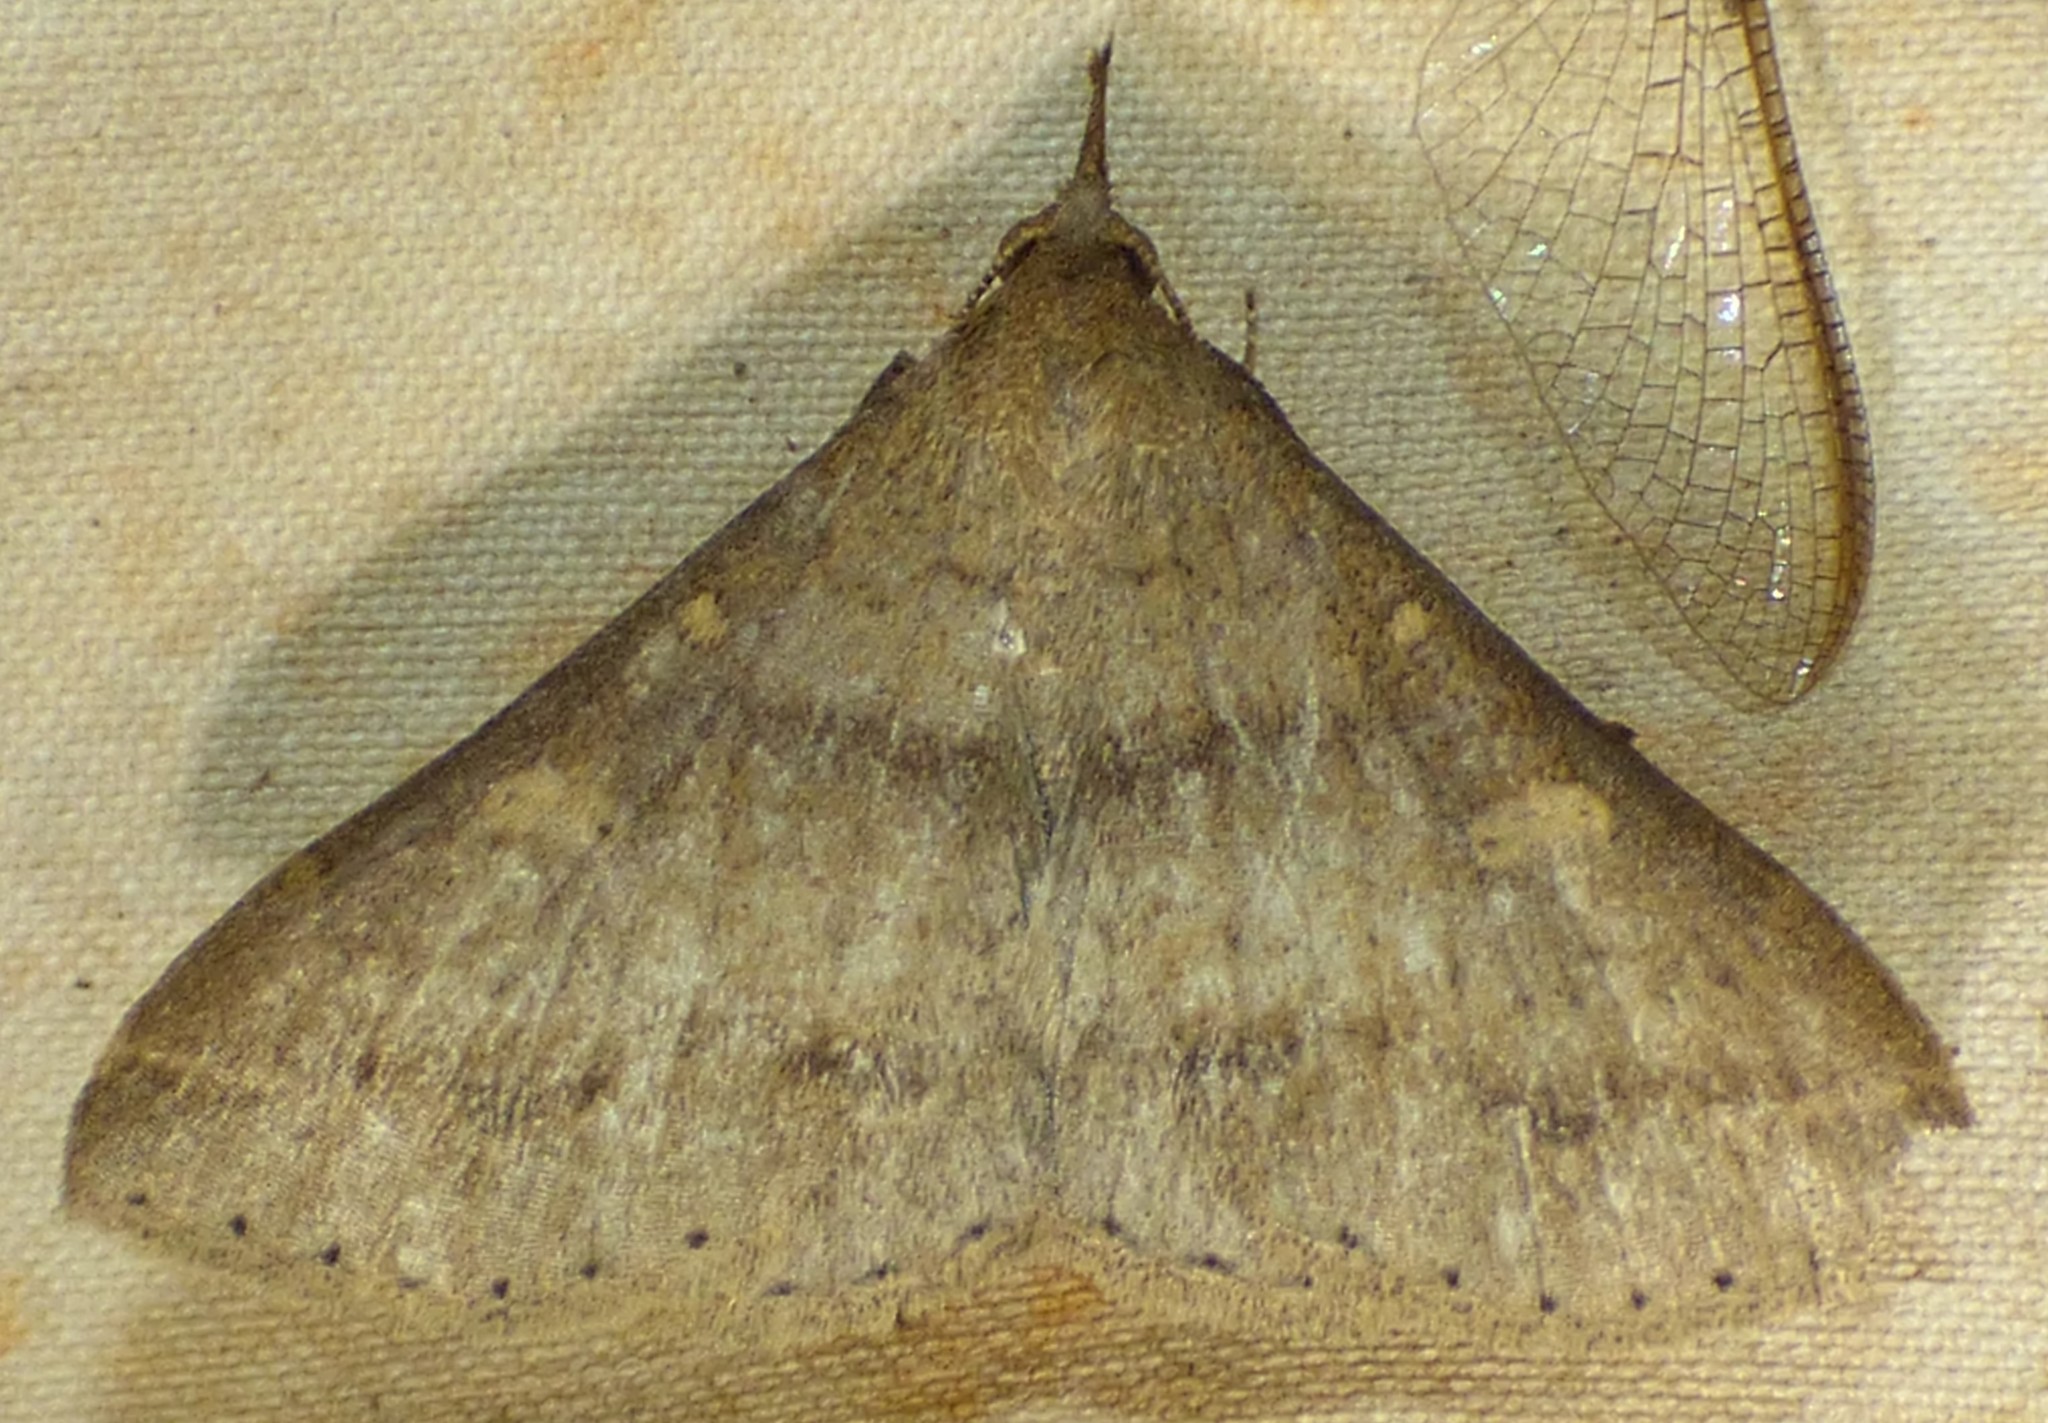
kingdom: Animalia
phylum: Arthropoda
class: Insecta
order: Lepidoptera
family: Erebidae
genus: Renia
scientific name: Renia adspergillus
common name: Speckled renia moth
